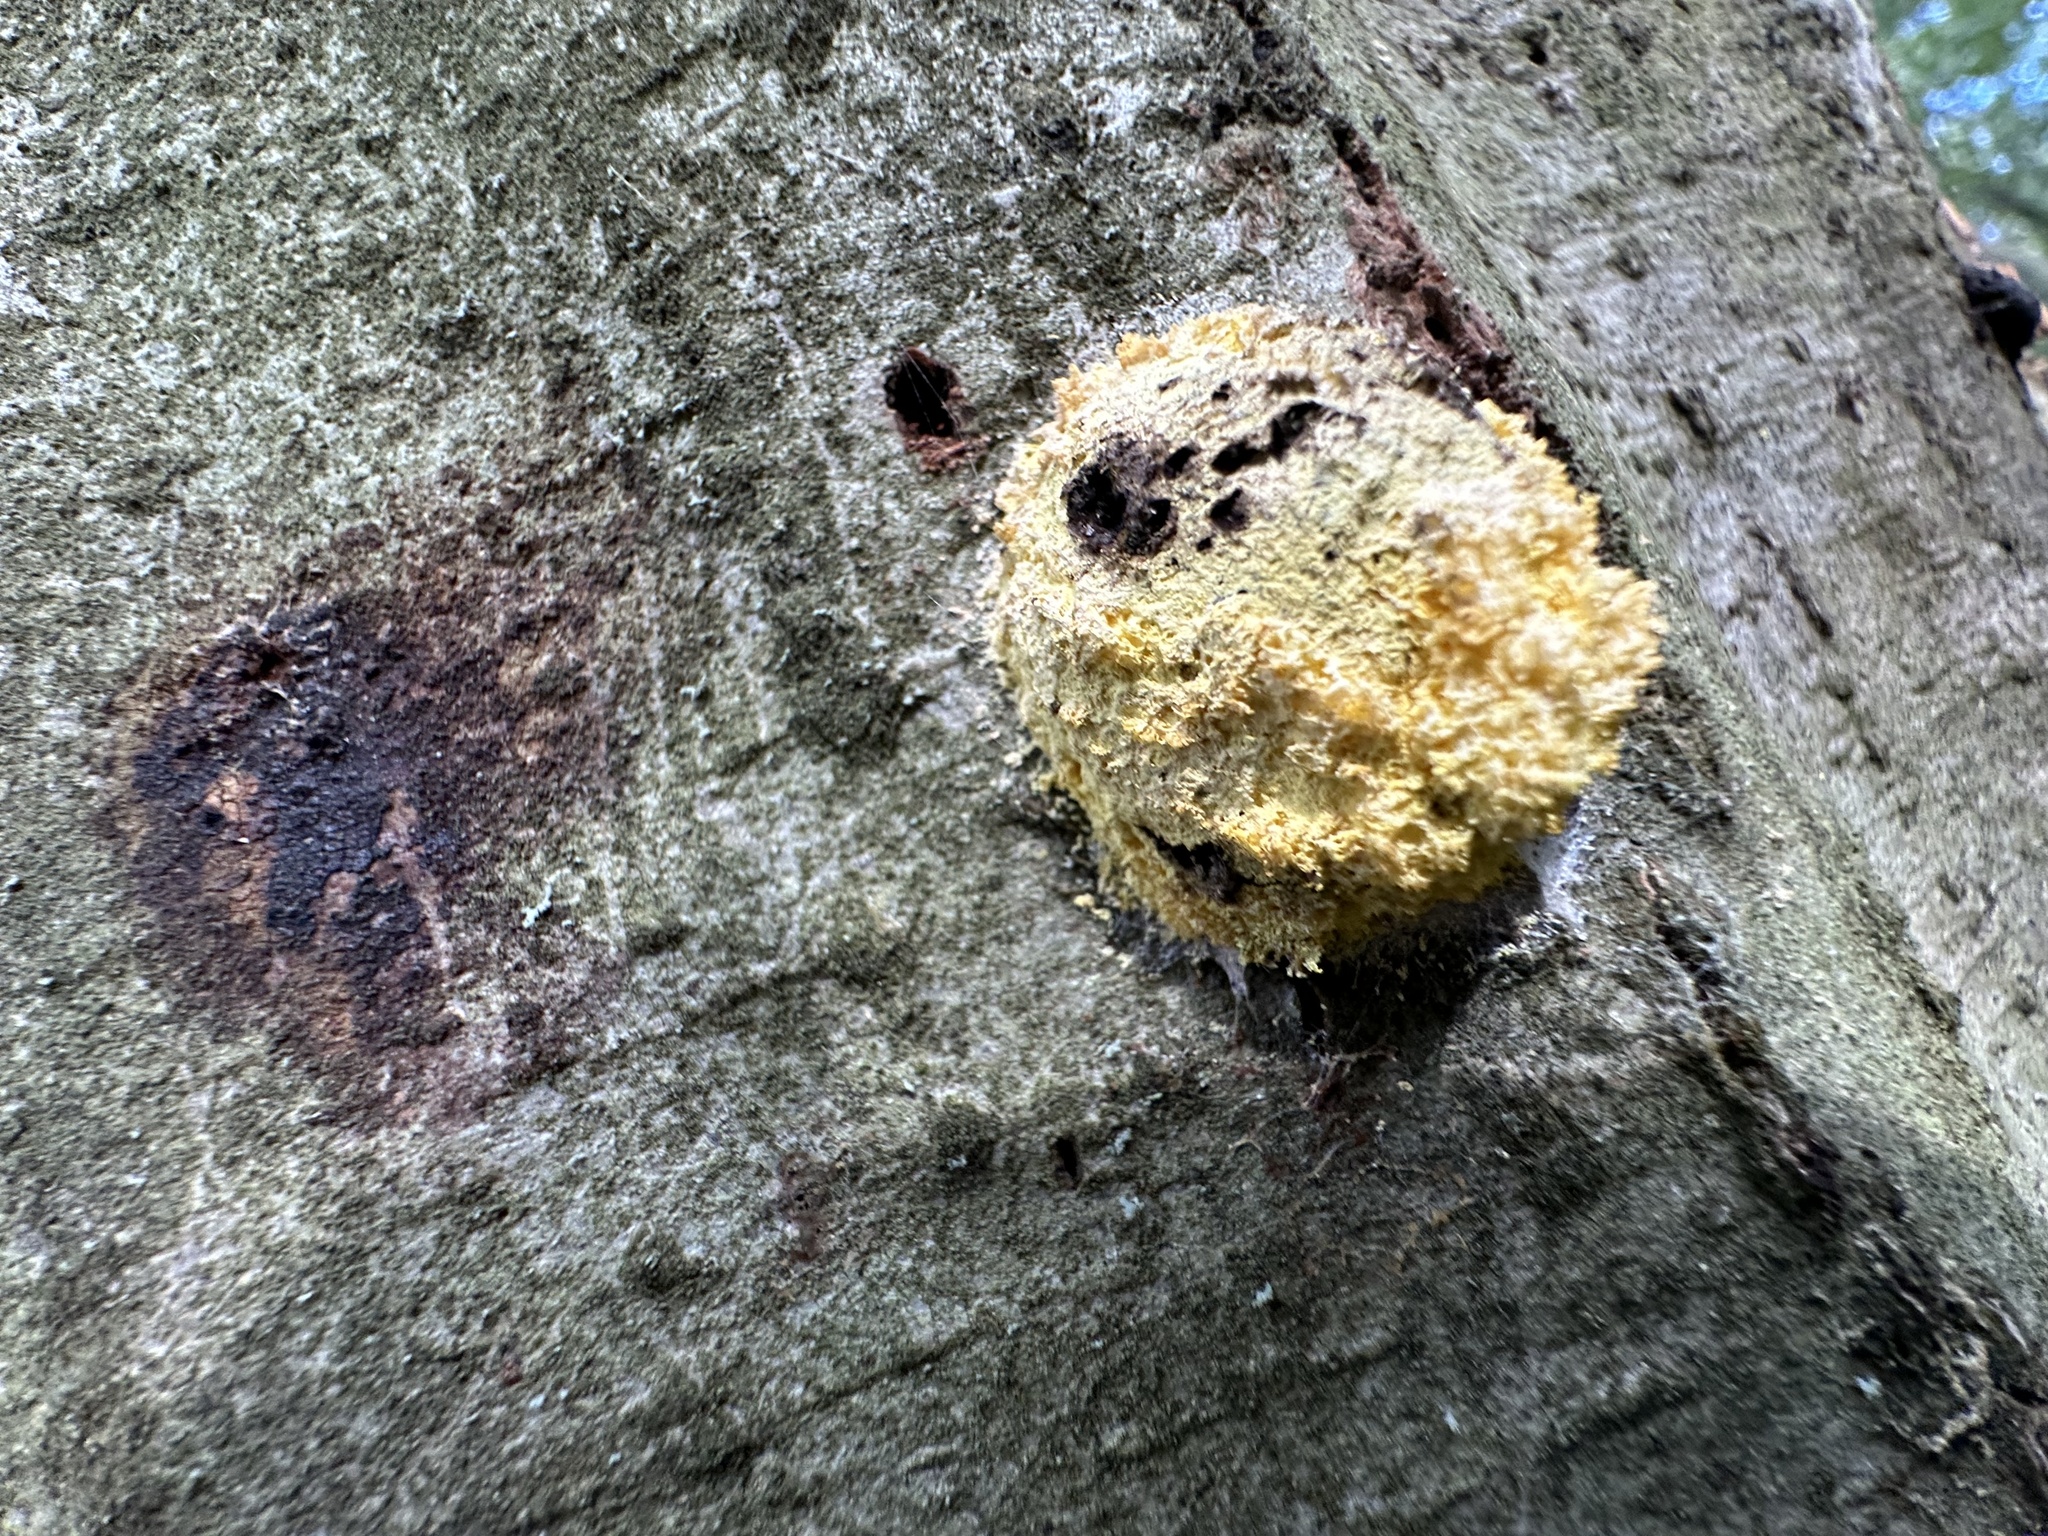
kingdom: Protozoa
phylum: Mycetozoa
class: Myxomycetes
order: Physarales
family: Physaraceae
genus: Fuligo
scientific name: Fuligo septica
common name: Dog vomit slime mold
